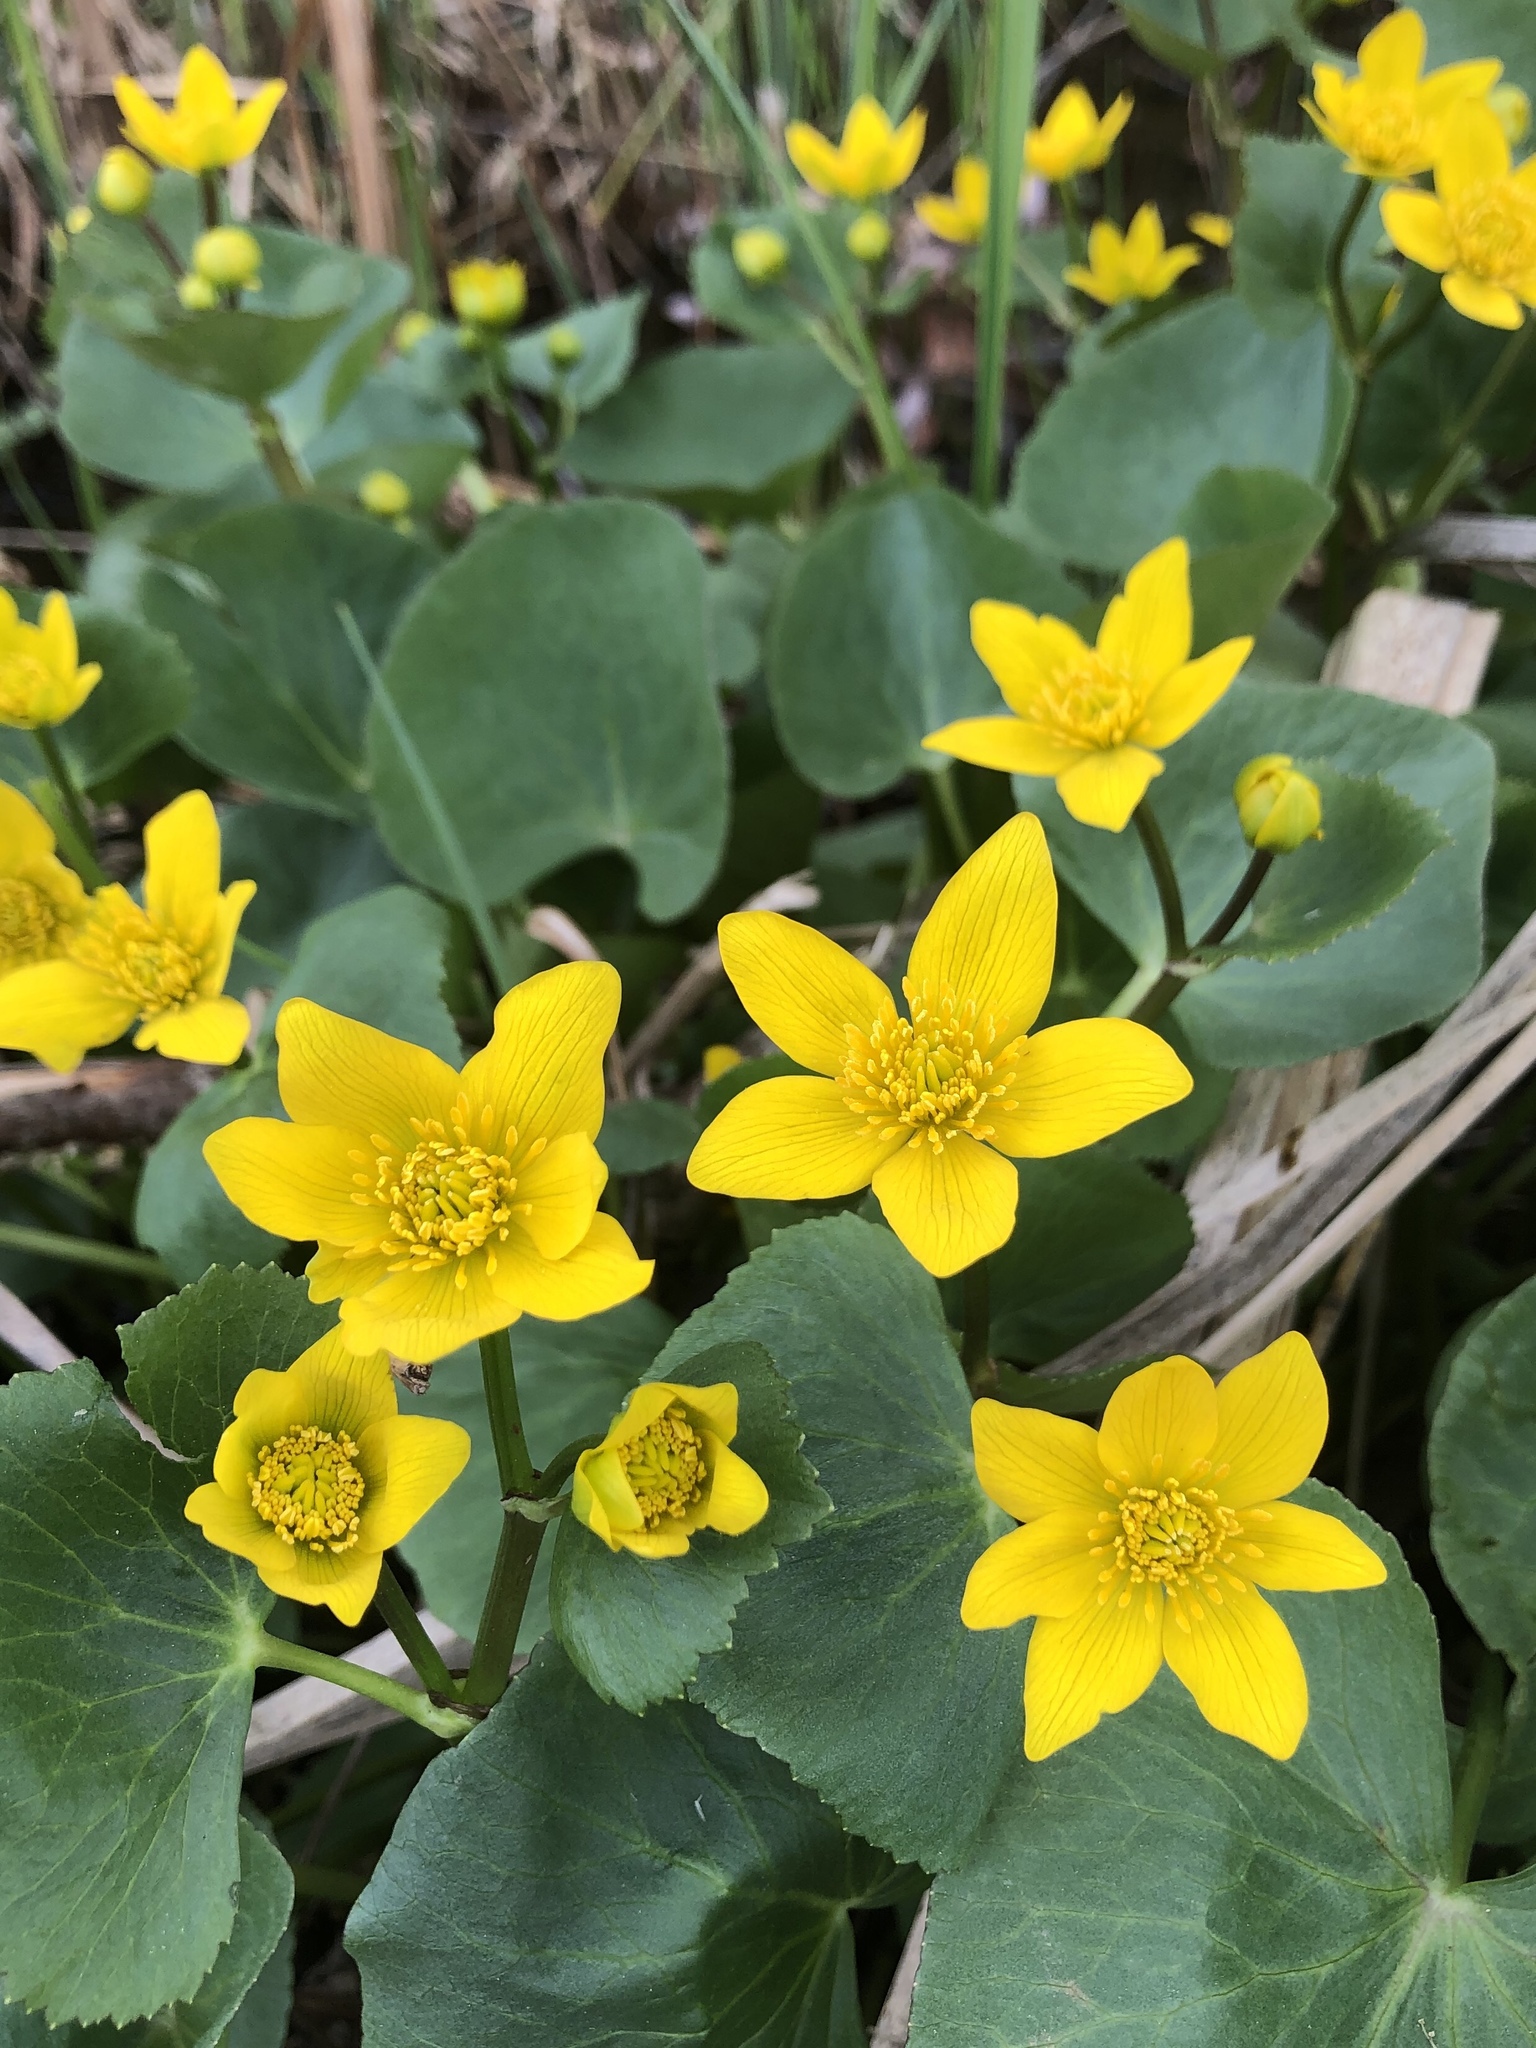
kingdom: Plantae
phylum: Tracheophyta
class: Magnoliopsida
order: Ranunculales
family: Ranunculaceae
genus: Caltha
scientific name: Caltha palustris
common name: Marsh marigold
